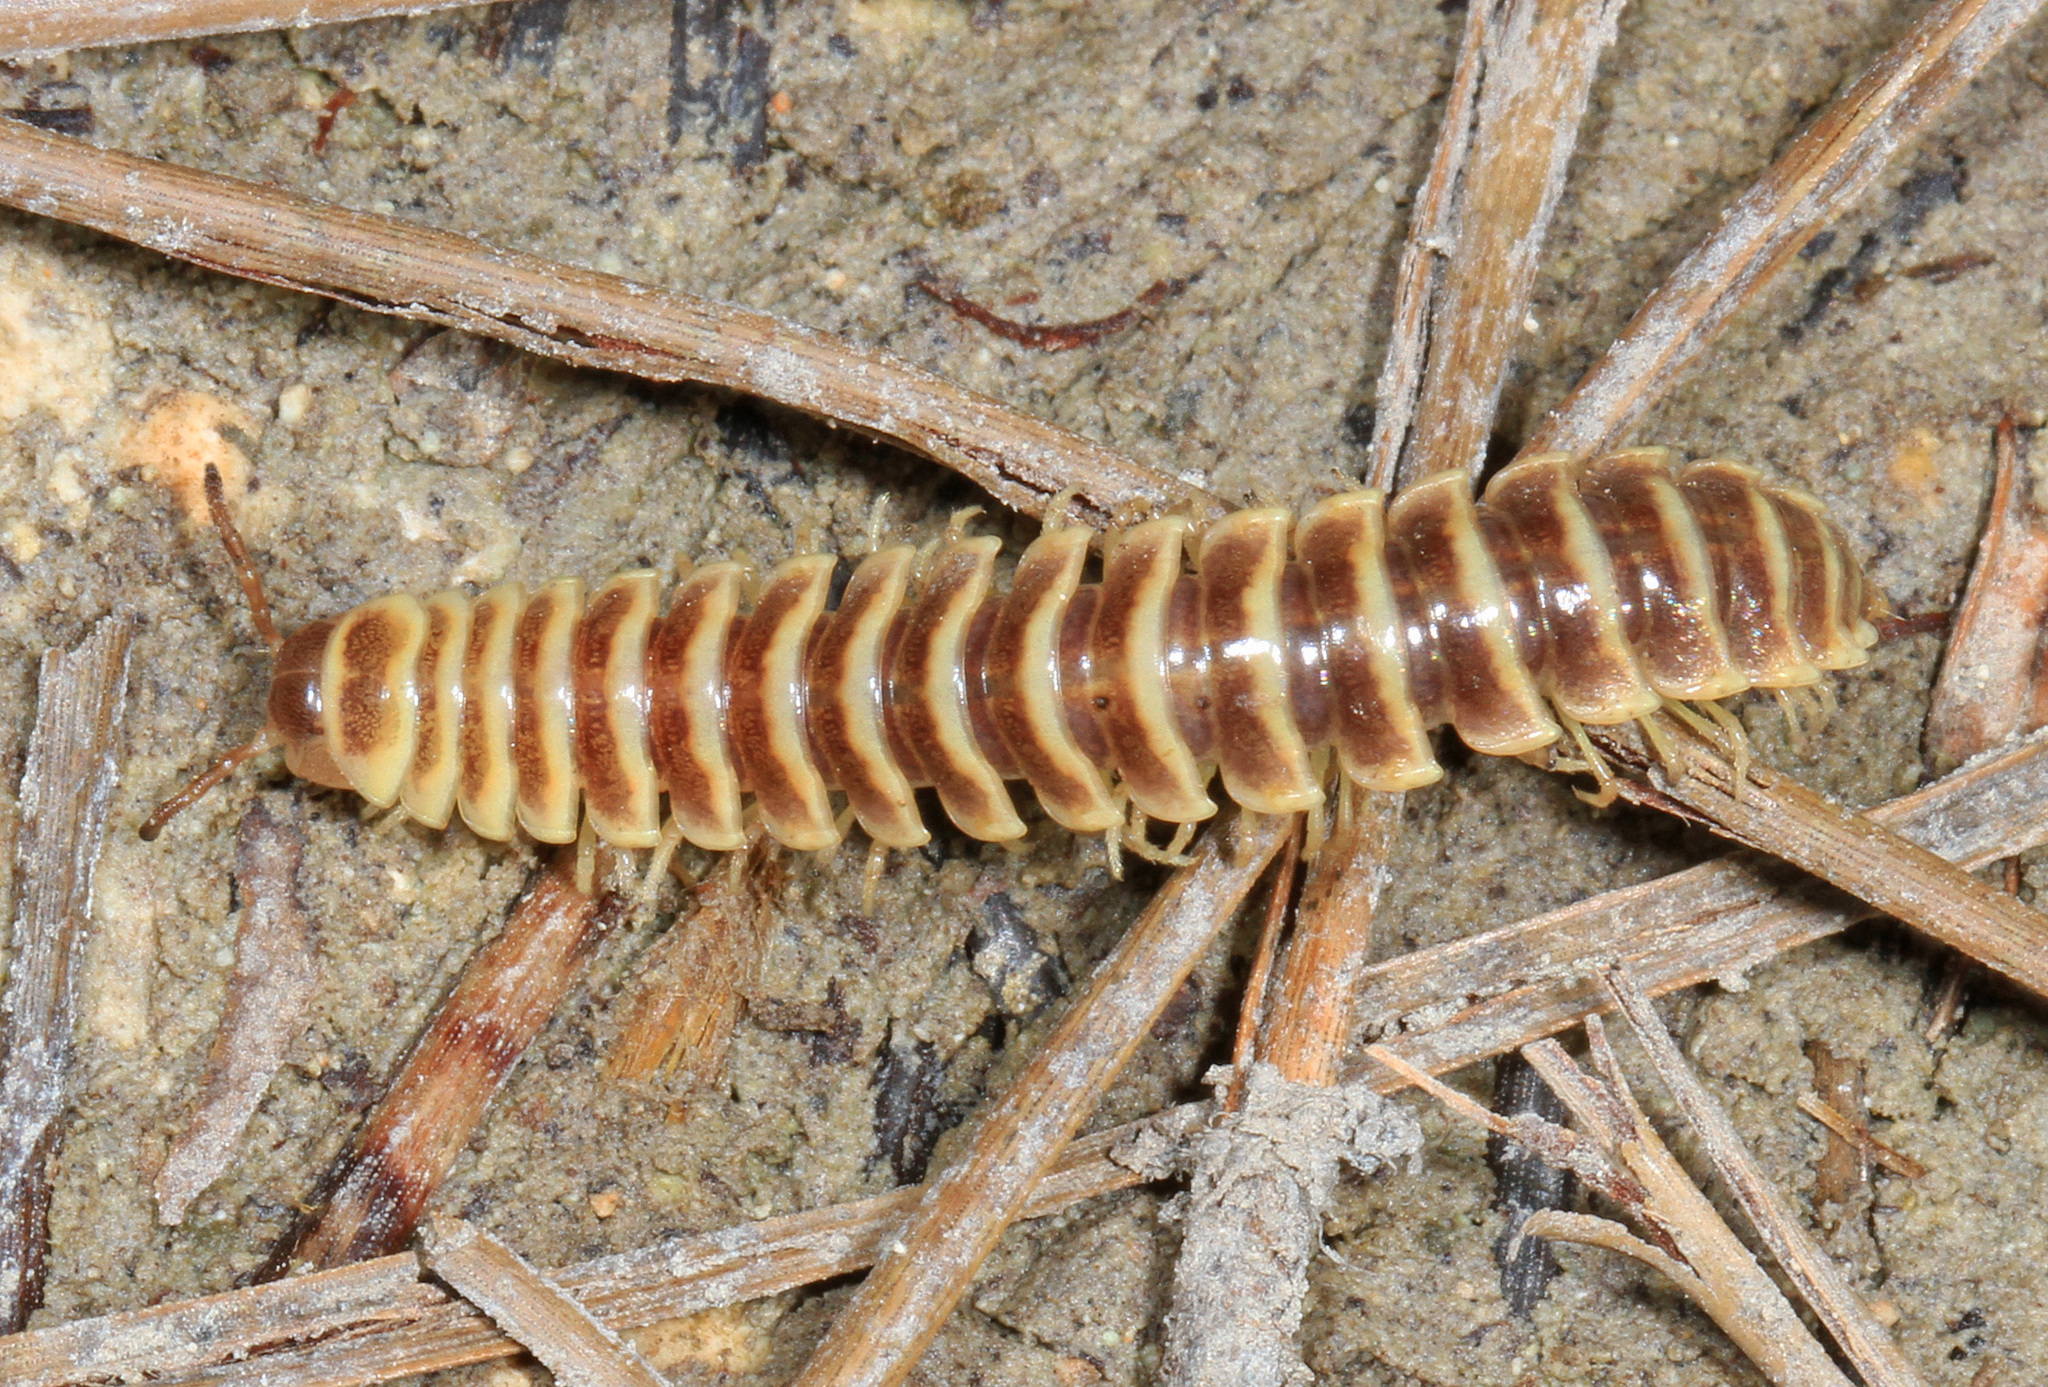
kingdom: Animalia
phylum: Arthropoda
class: Diplopoda
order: Polydesmida
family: Xystodesmidae
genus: Pleuroloma
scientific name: Pleuroloma cala
